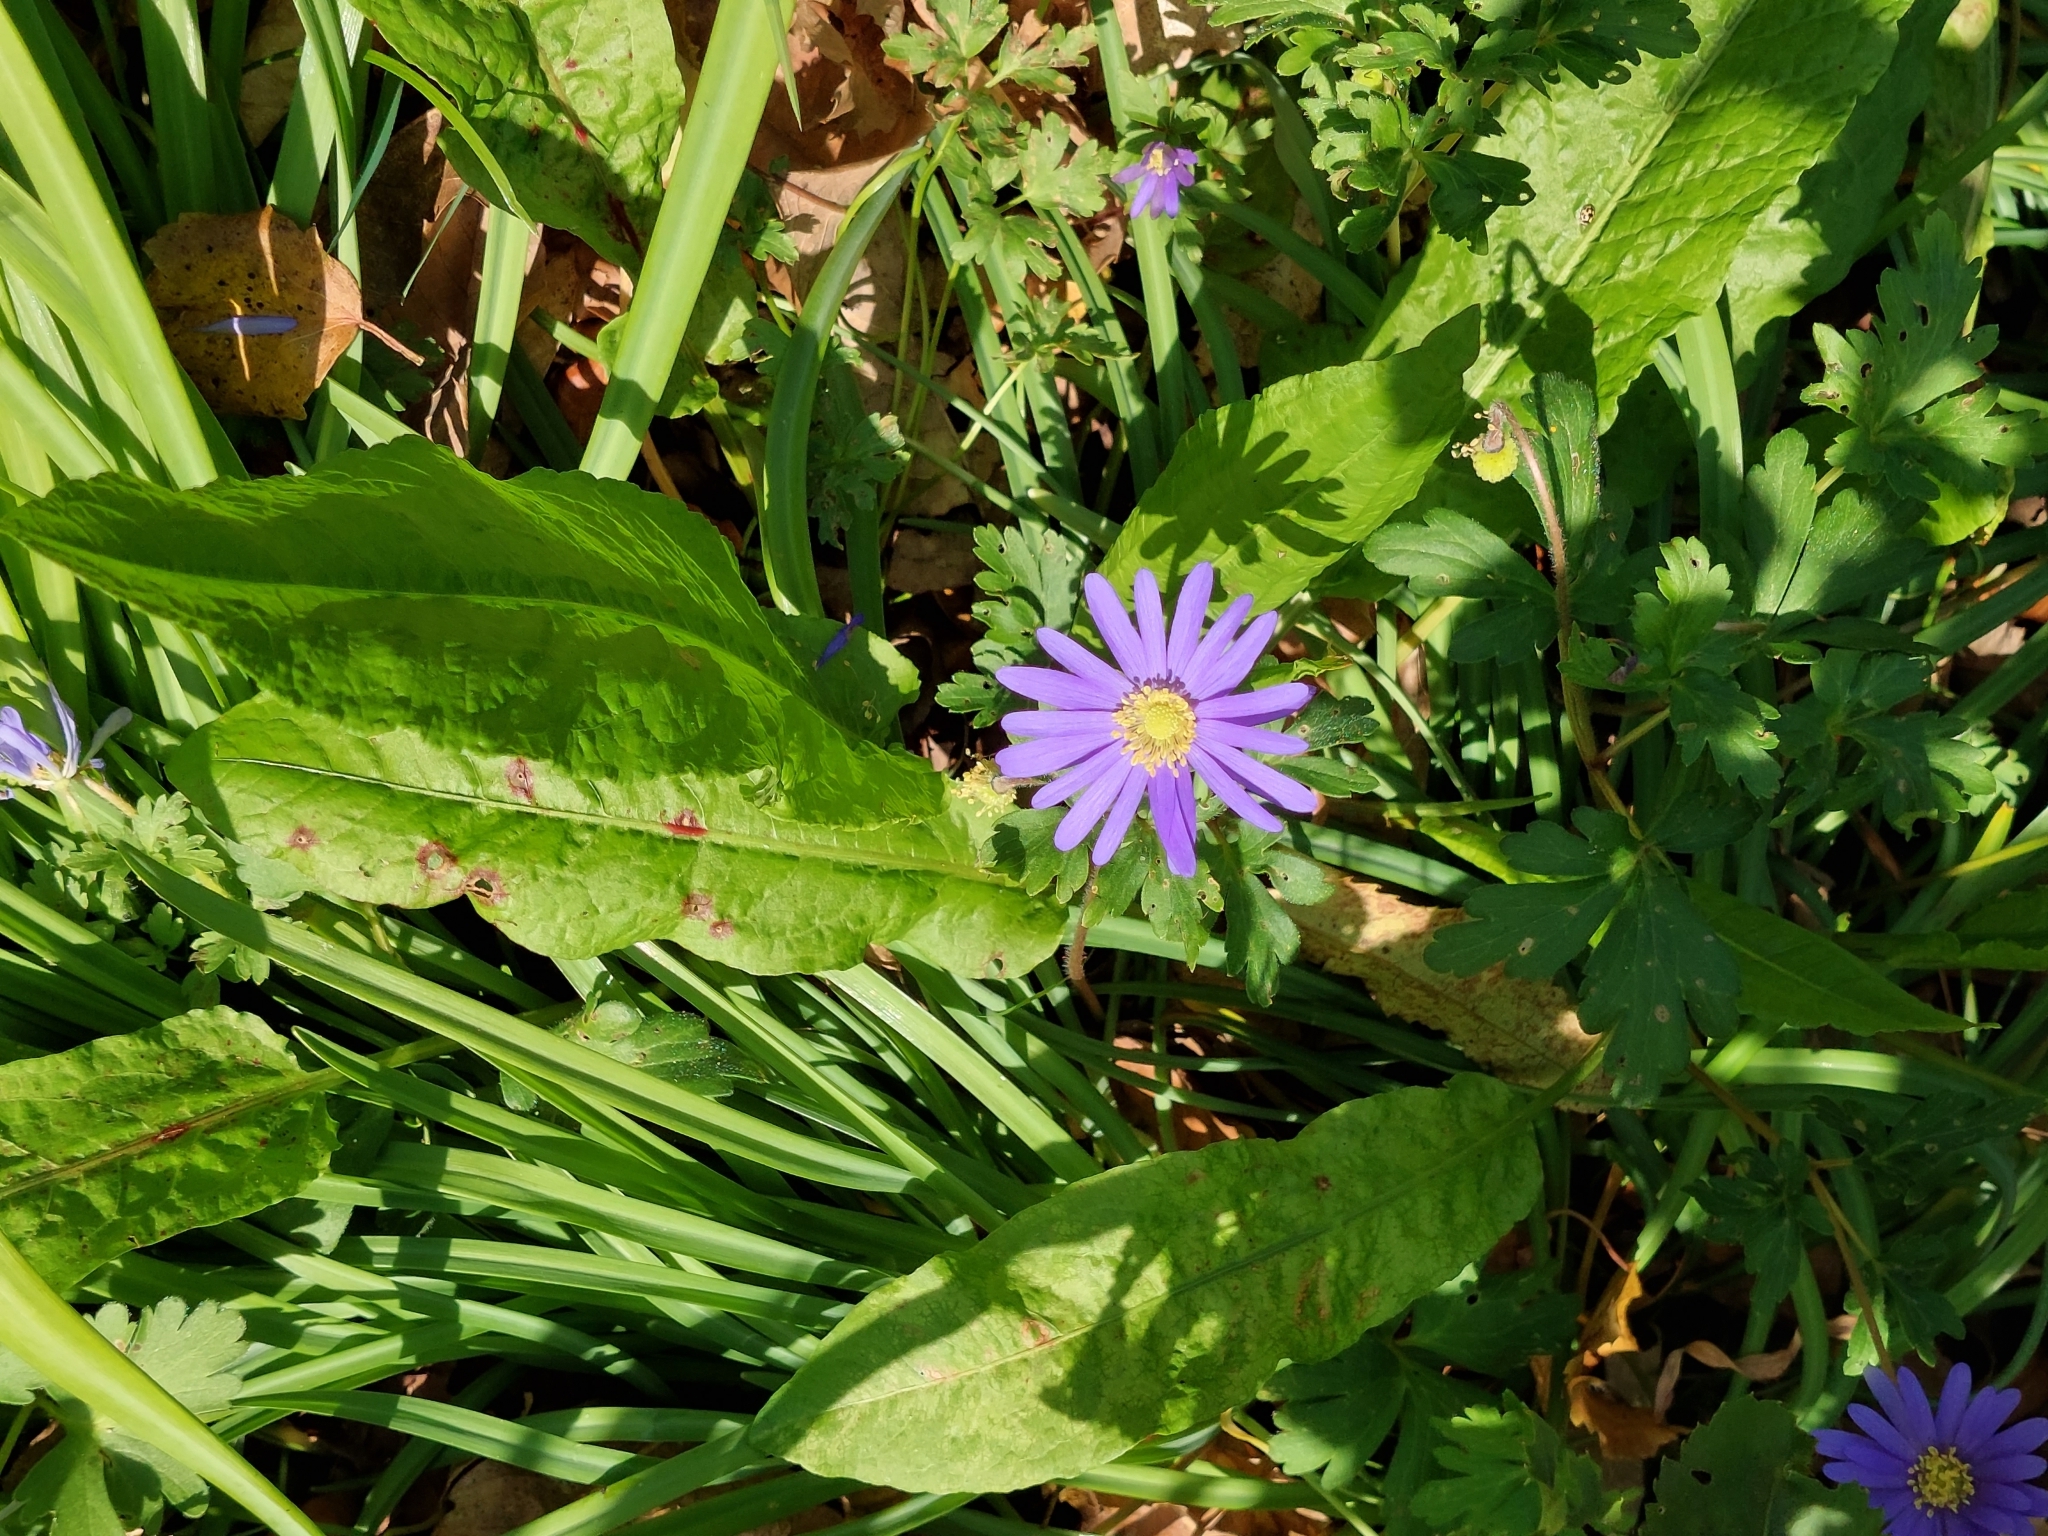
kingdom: Plantae
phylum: Tracheophyta
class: Magnoliopsida
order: Ranunculales
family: Ranunculaceae
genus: Anemone
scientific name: Anemone blanda
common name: Balkan anemone
